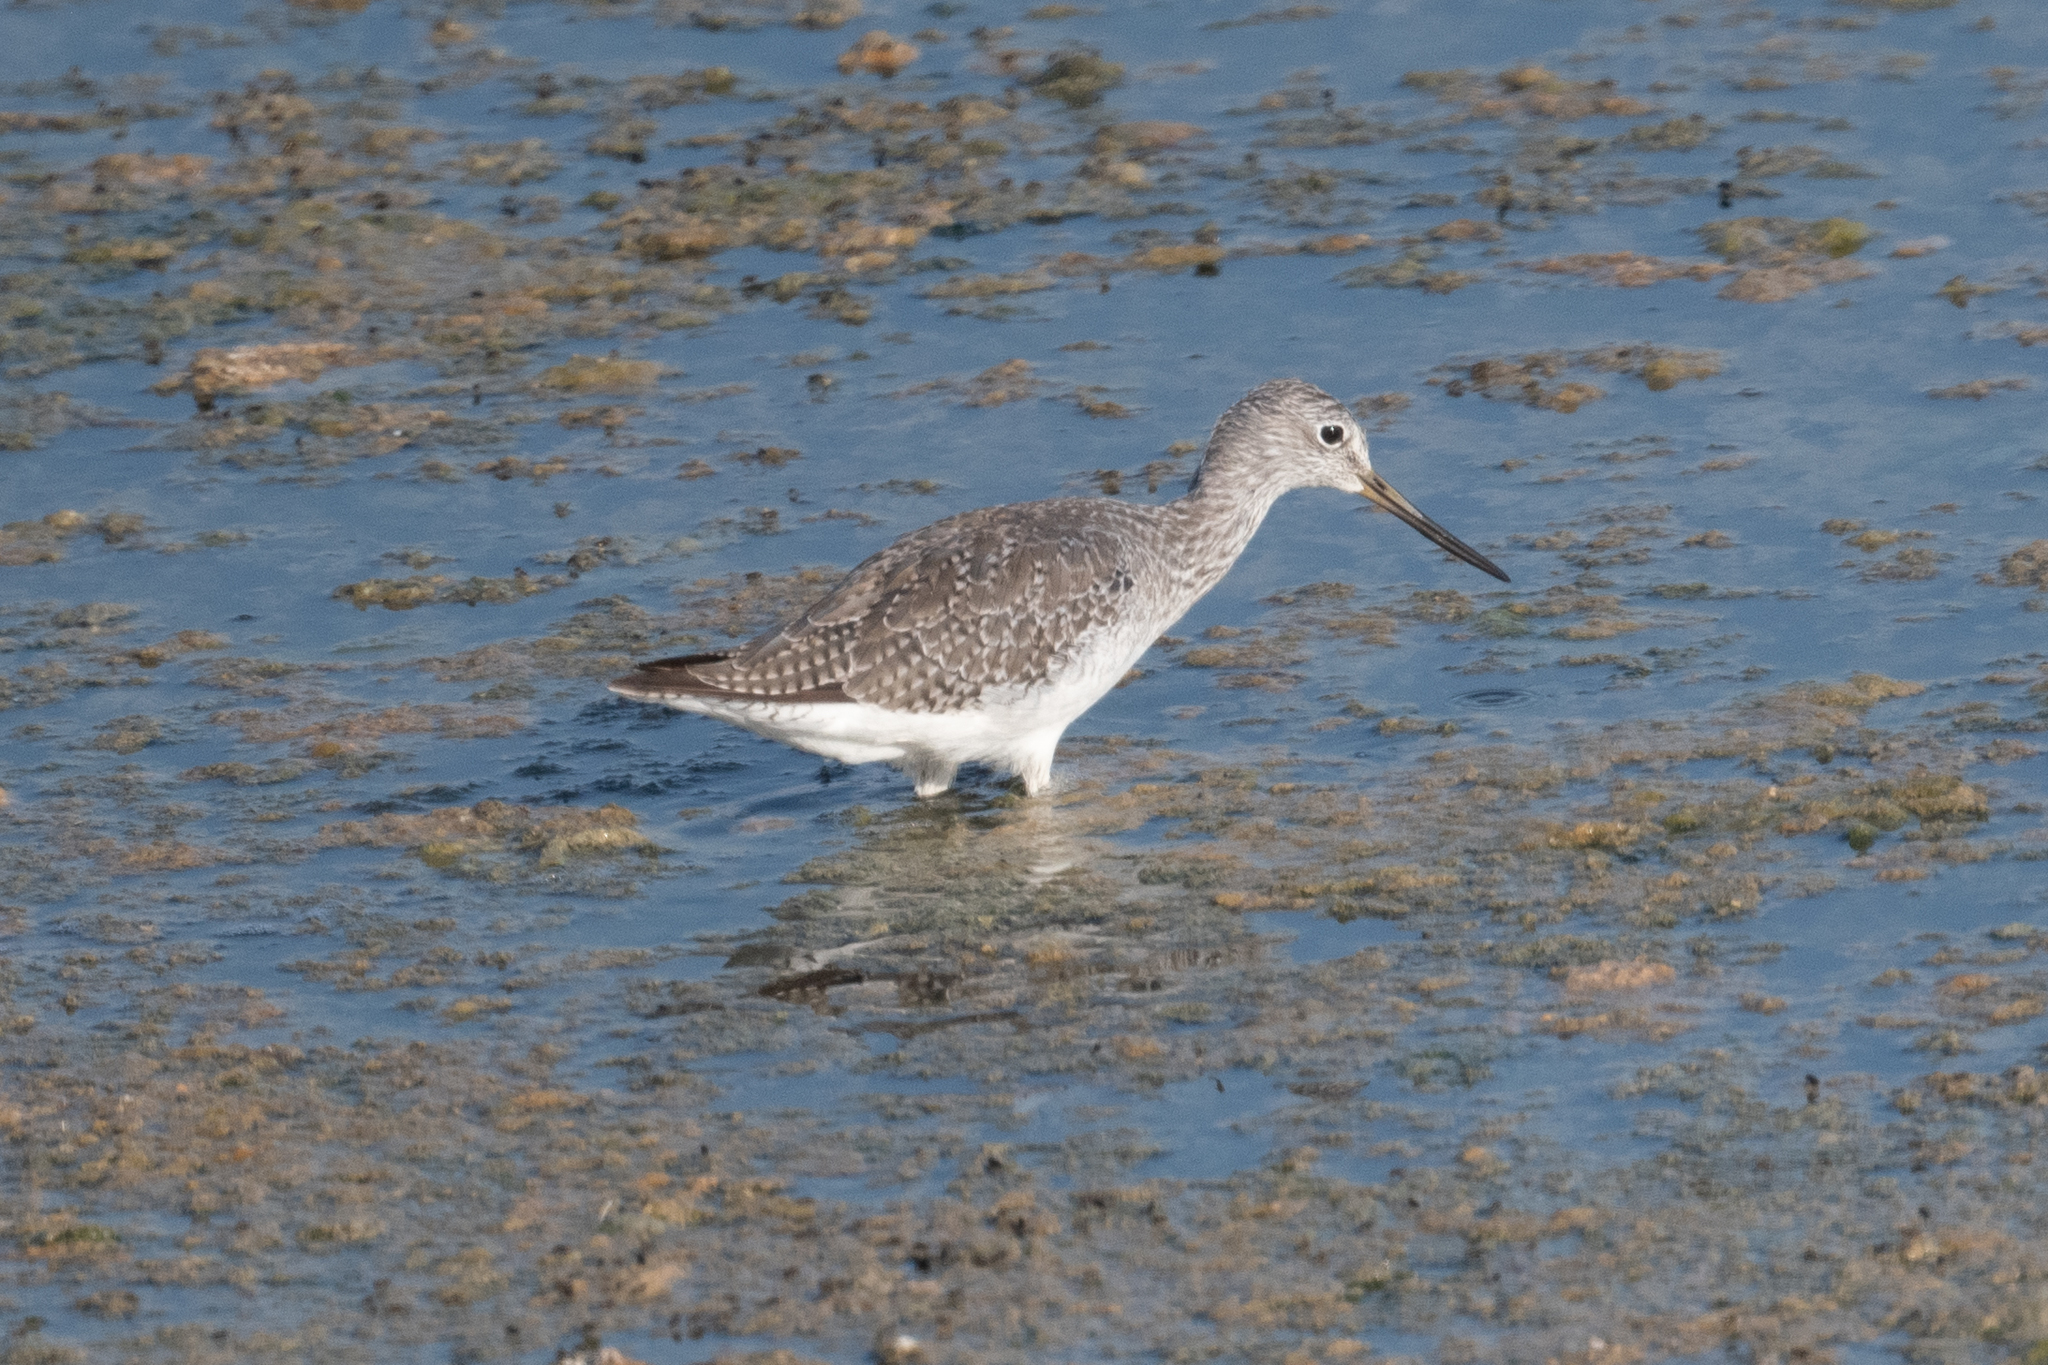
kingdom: Animalia
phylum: Chordata
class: Aves
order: Charadriiformes
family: Scolopacidae
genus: Tringa
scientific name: Tringa melanoleuca
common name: Greater yellowlegs
